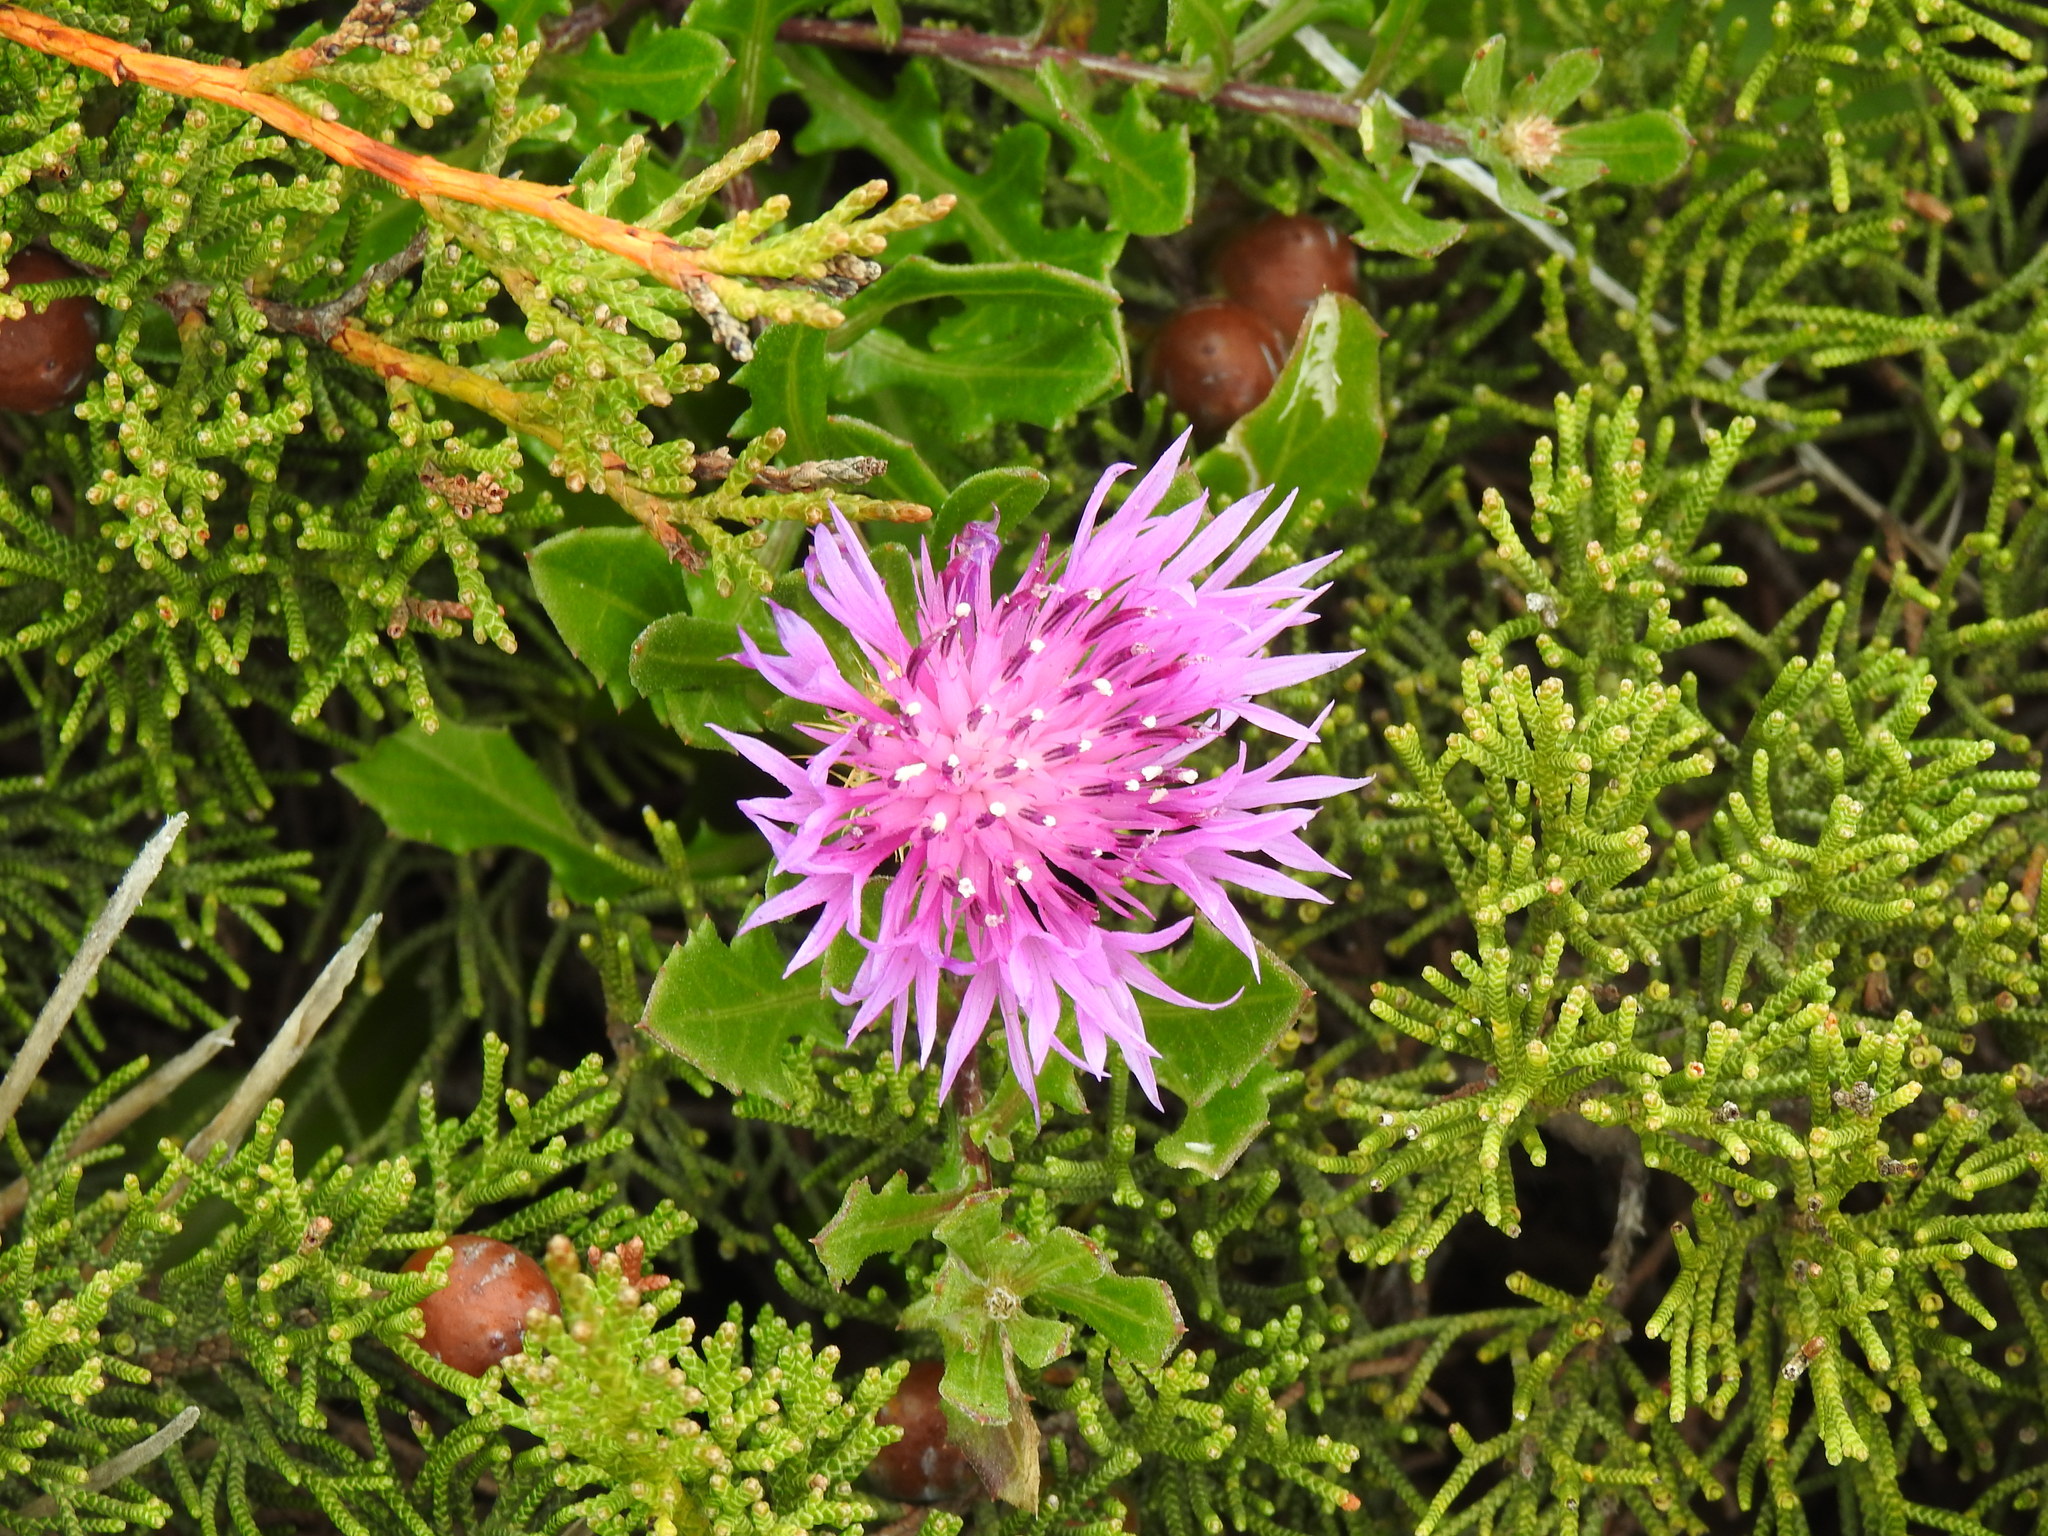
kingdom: Plantae
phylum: Tracheophyta
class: Magnoliopsida
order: Asterales
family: Asteraceae
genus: Centaurea
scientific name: Centaurea susannae
